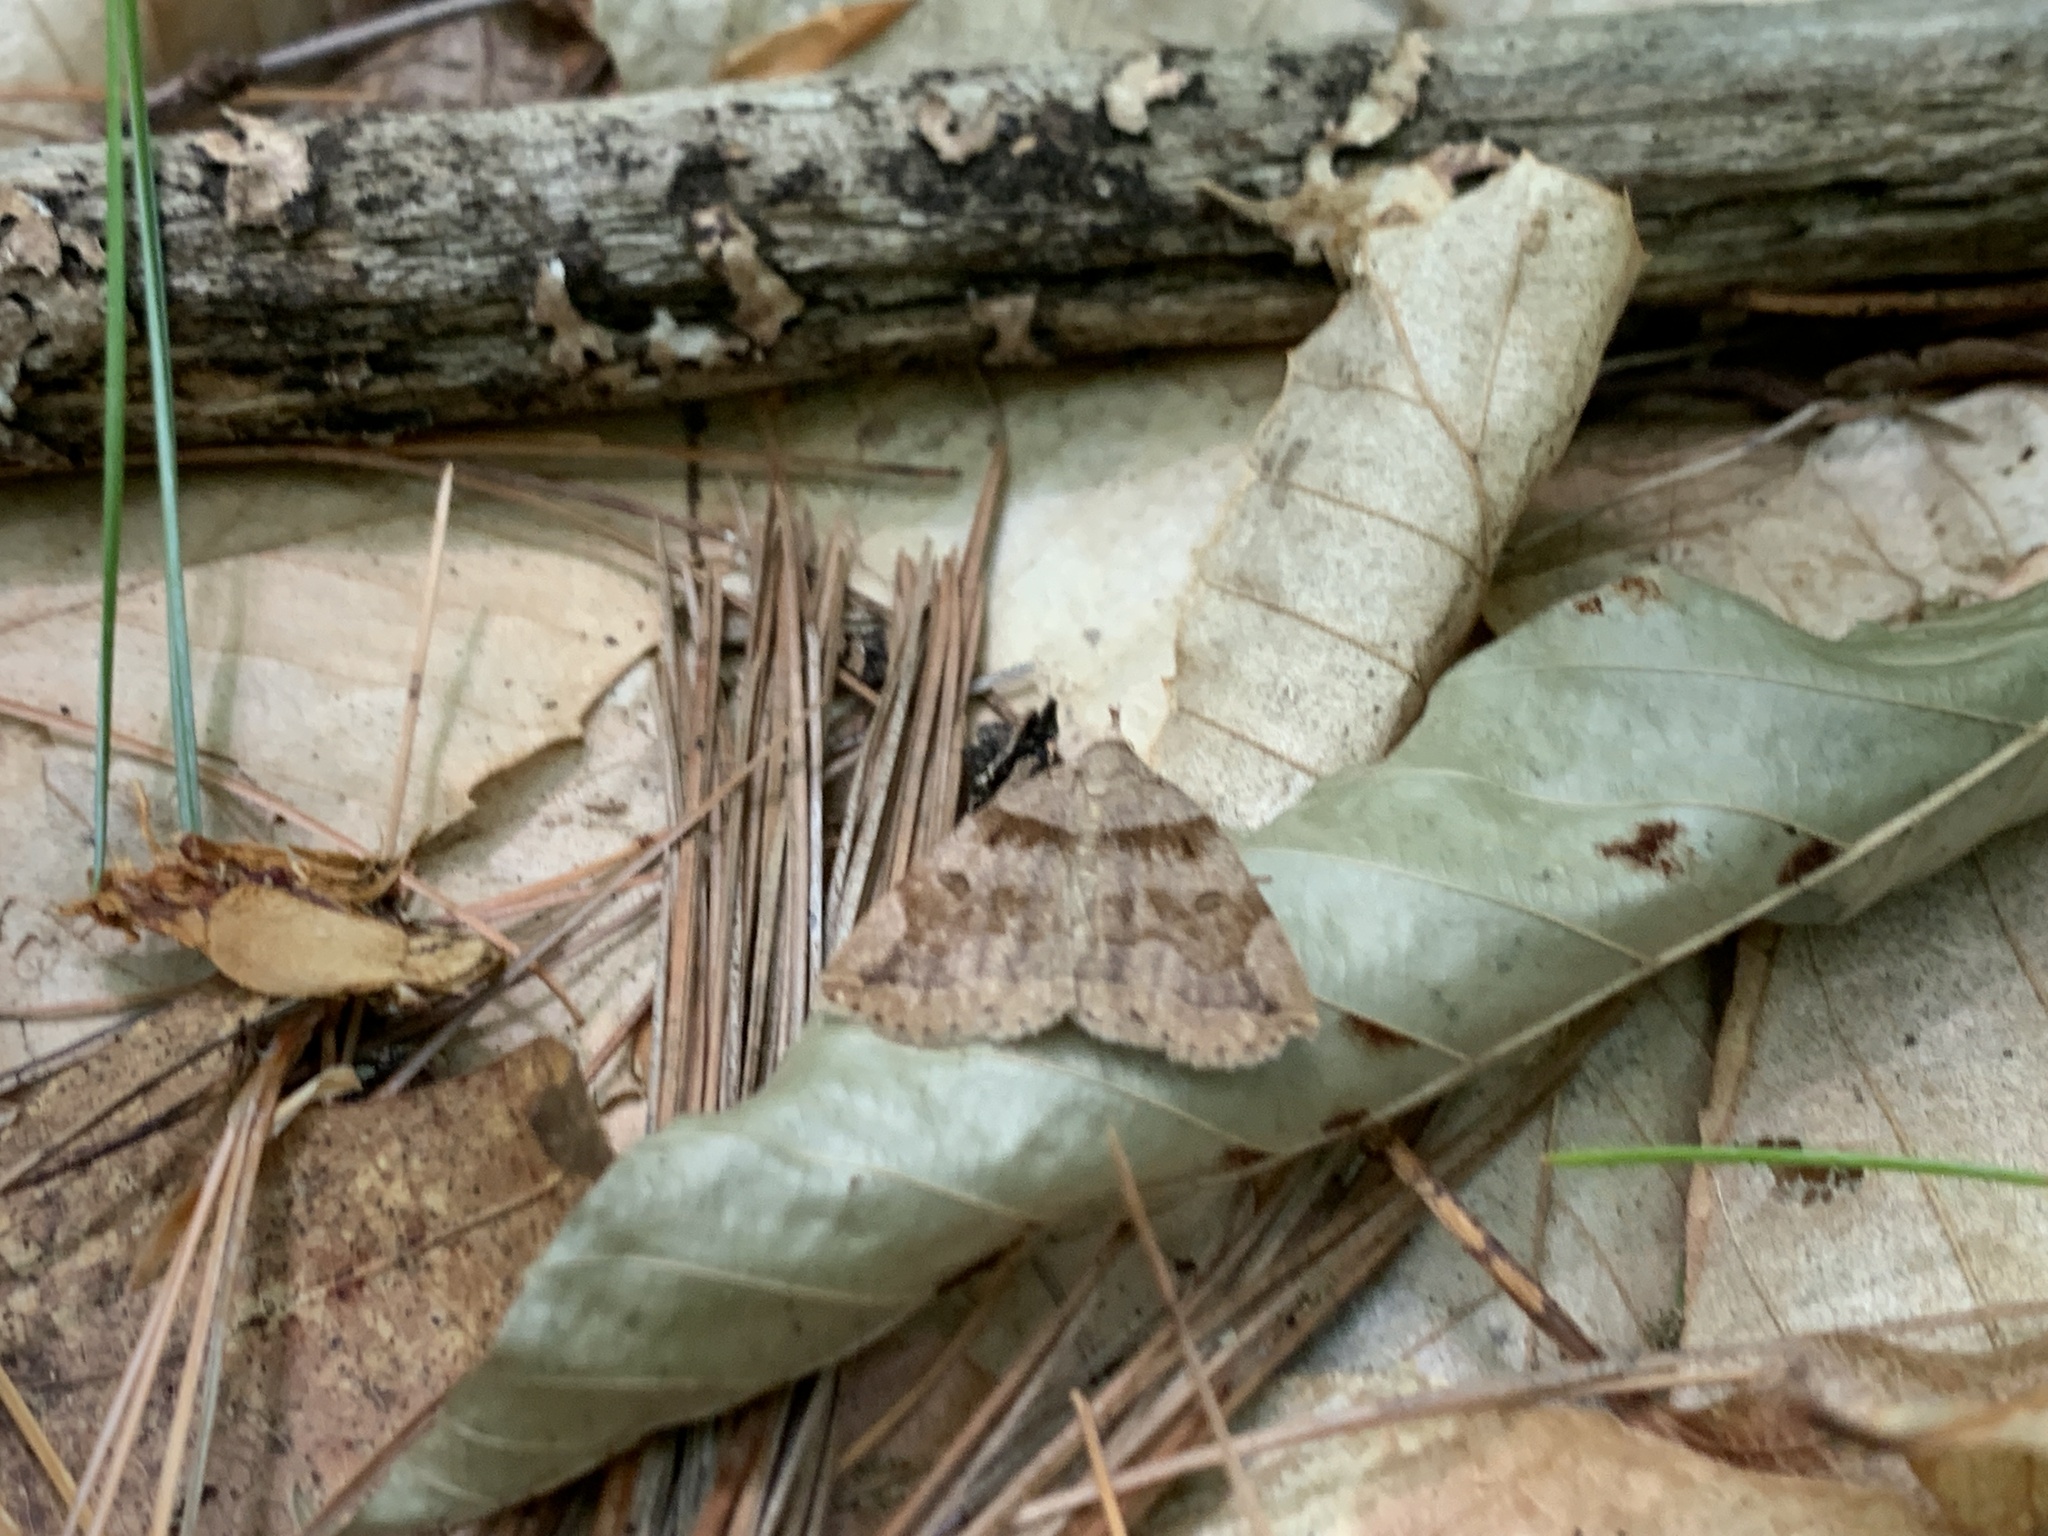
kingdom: Animalia
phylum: Arthropoda
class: Insecta
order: Lepidoptera
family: Erebidae
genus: Zanclognatha
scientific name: Zanclognatha laevigata
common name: Variable fan-foot
